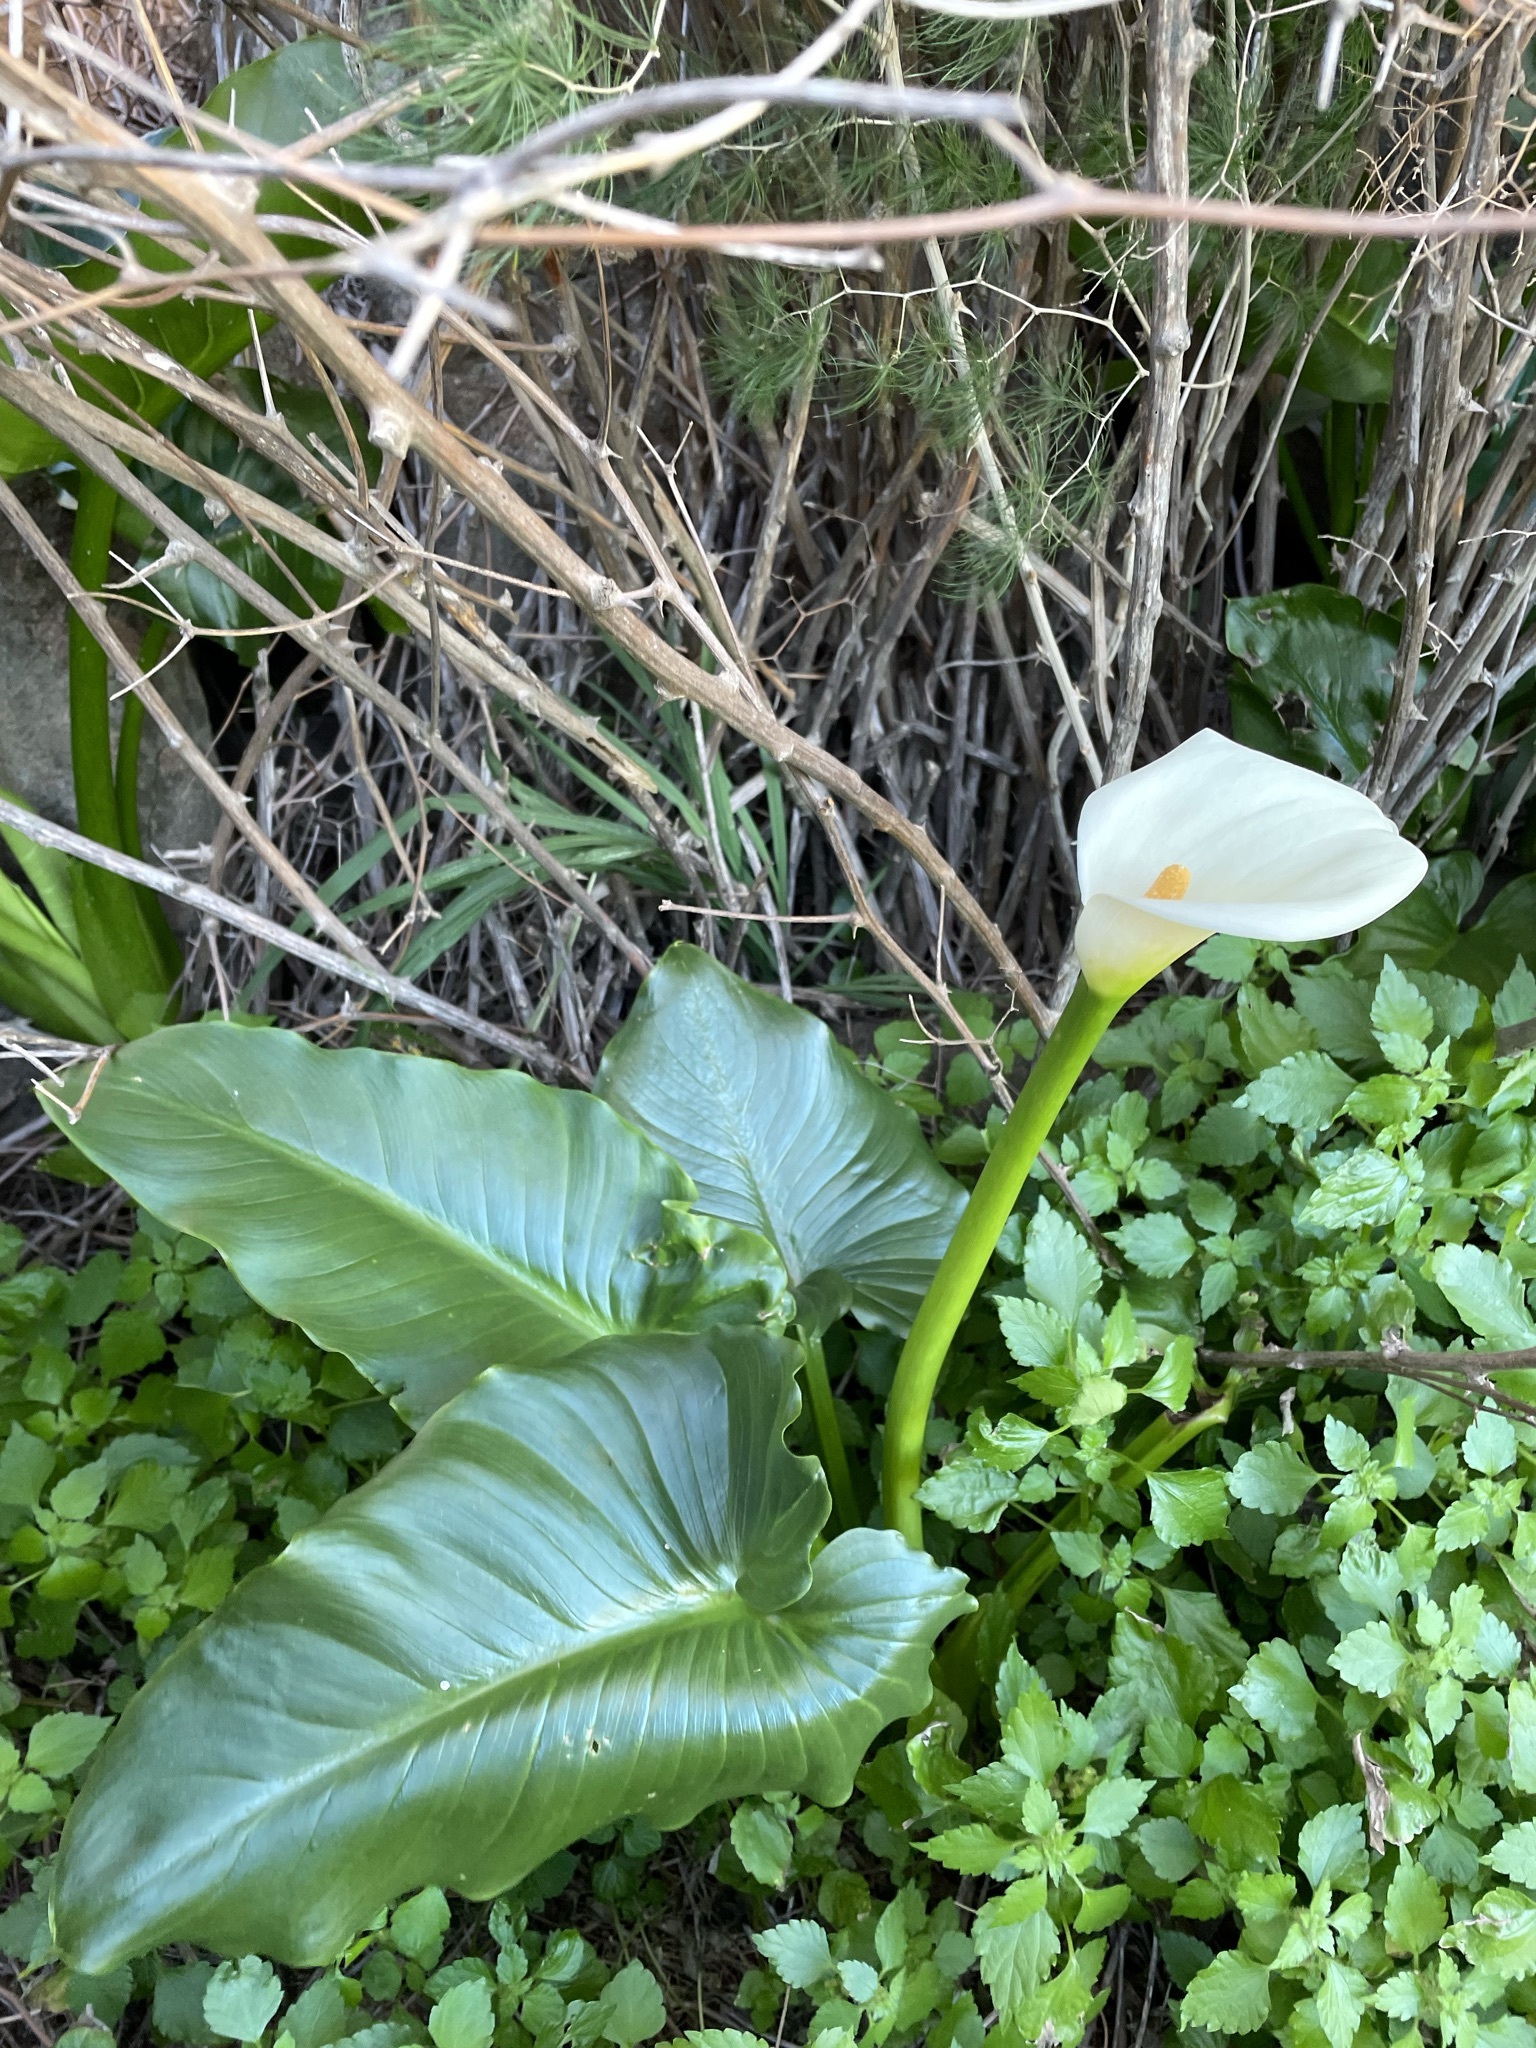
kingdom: Plantae
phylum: Tracheophyta
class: Liliopsida
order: Alismatales
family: Araceae
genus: Zantedeschia
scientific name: Zantedeschia odorata
